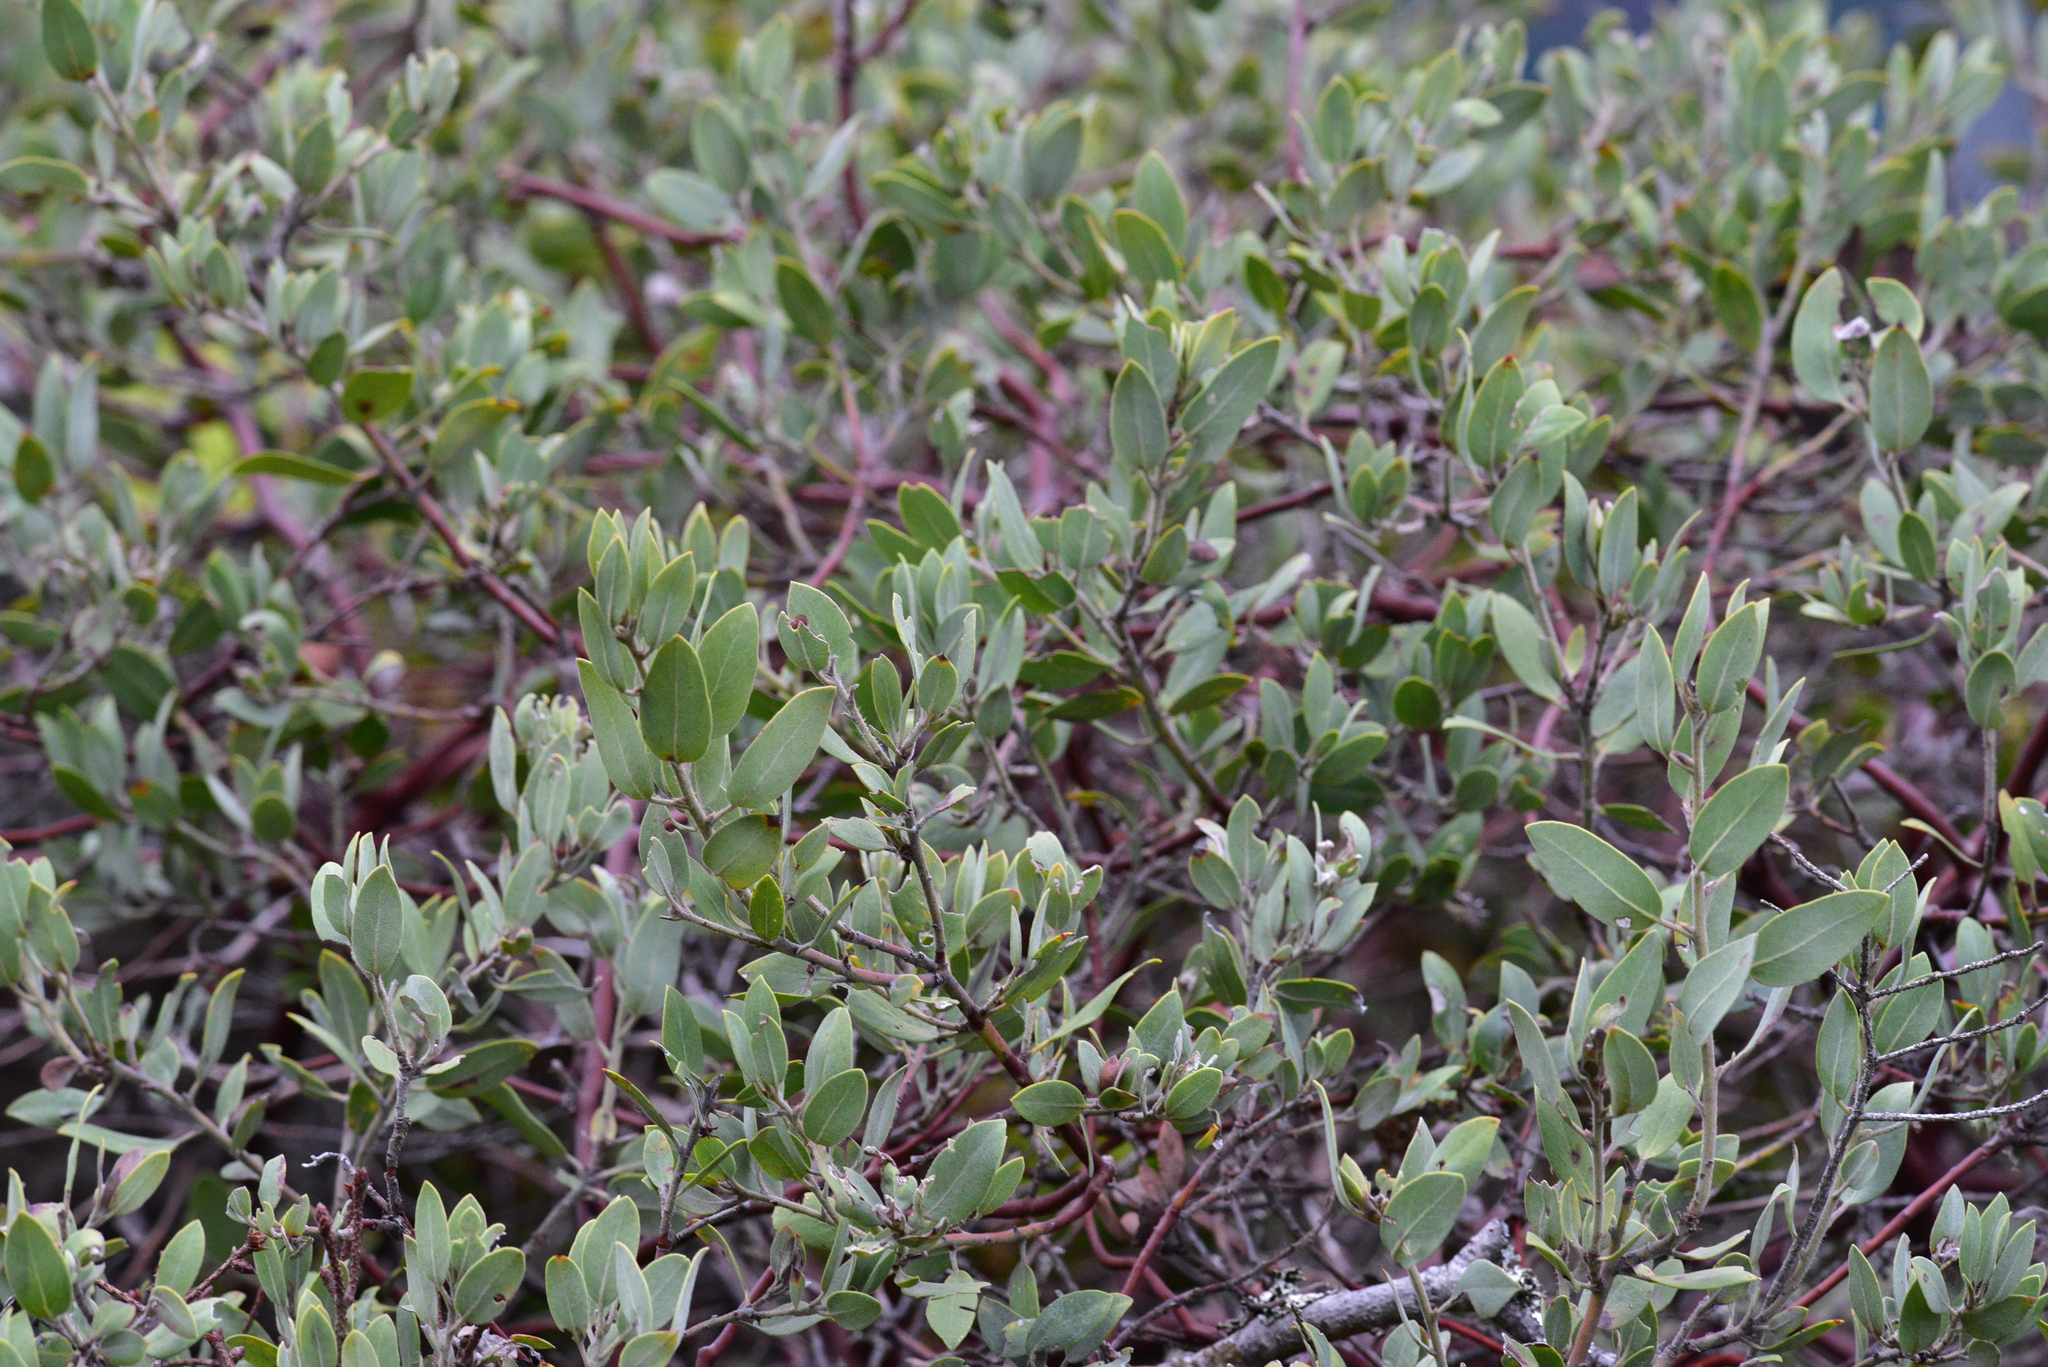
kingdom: Plantae
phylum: Tracheophyta
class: Magnoliopsida
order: Ericales
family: Ericaceae
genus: Arctostaphylos
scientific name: Arctostaphylos columbiana
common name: Bristly bearberry
